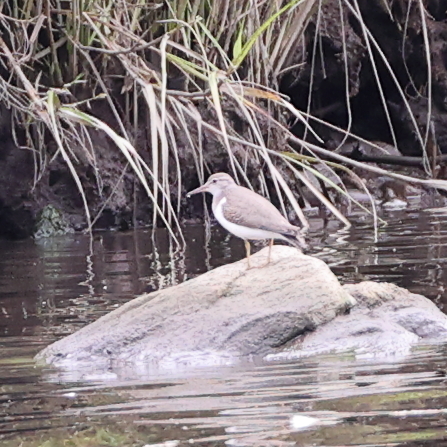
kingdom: Animalia
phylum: Chordata
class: Aves
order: Charadriiformes
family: Scolopacidae
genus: Actitis
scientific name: Actitis macularius
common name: Spotted sandpiper
